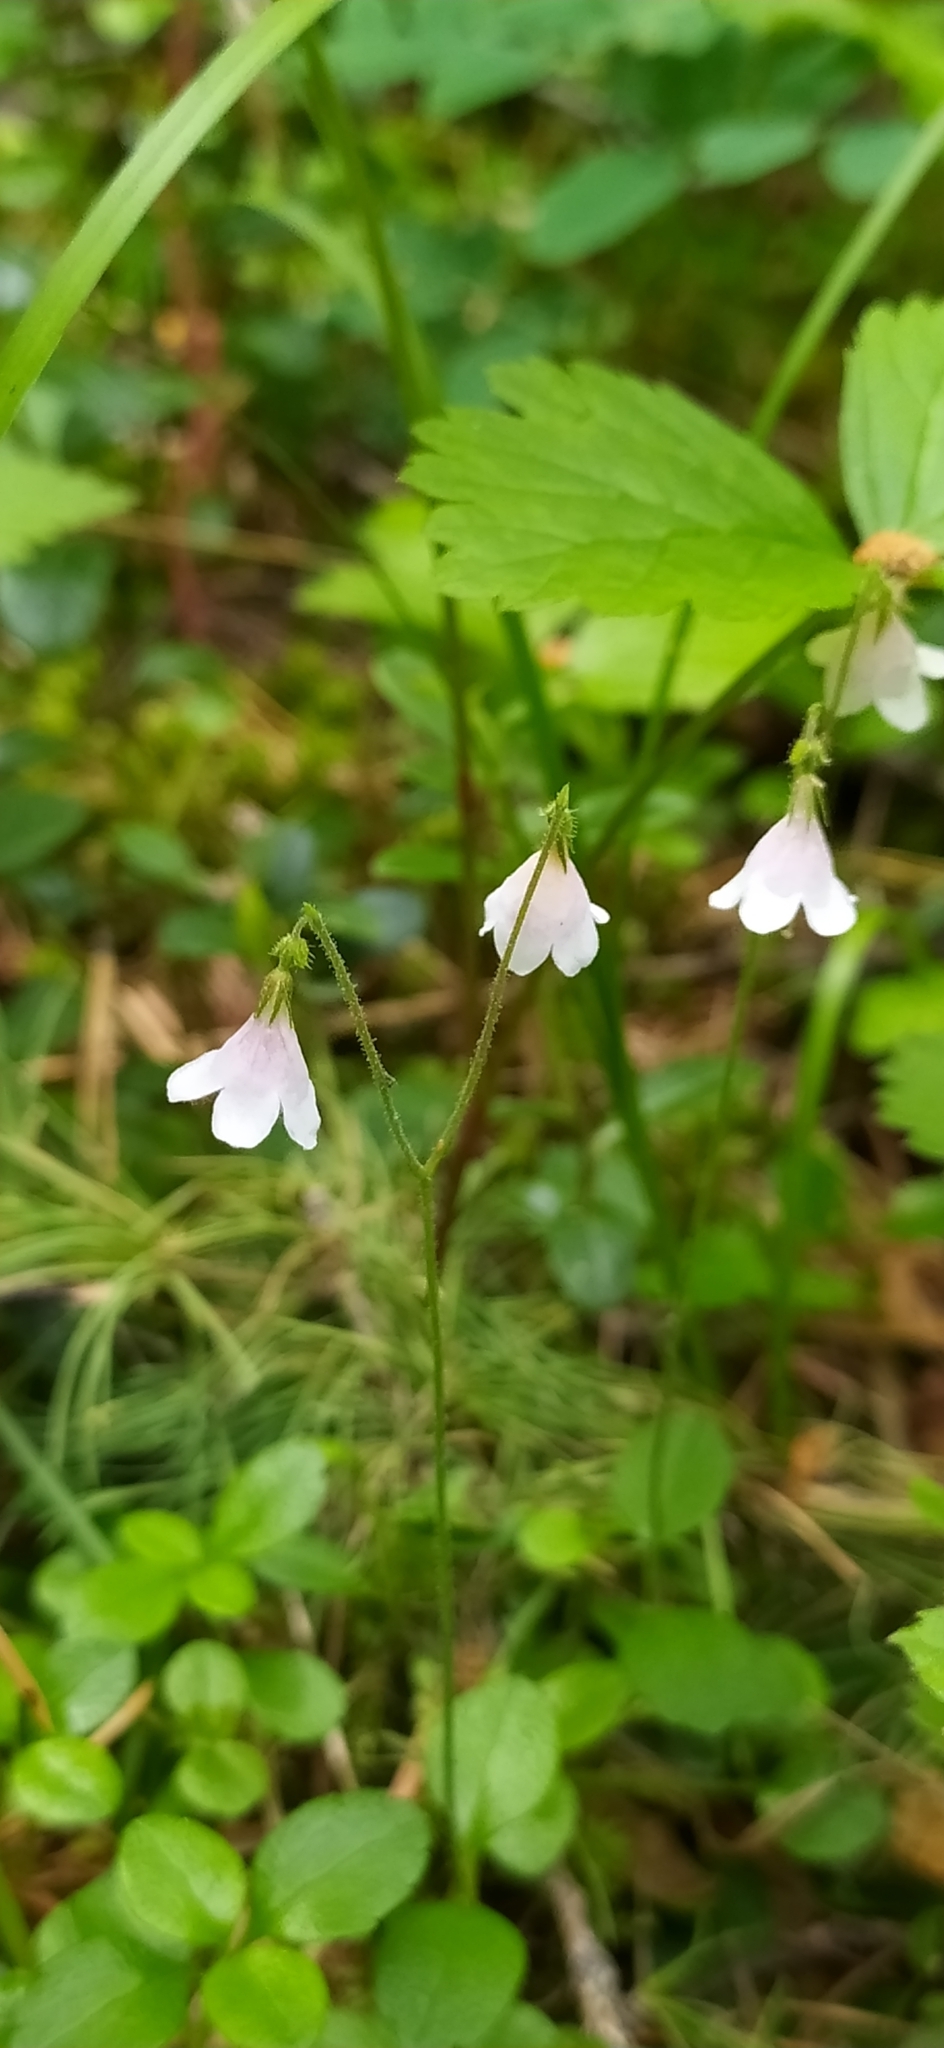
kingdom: Plantae
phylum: Tracheophyta
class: Magnoliopsida
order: Dipsacales
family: Caprifoliaceae
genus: Linnaea
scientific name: Linnaea borealis
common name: Twinflower
